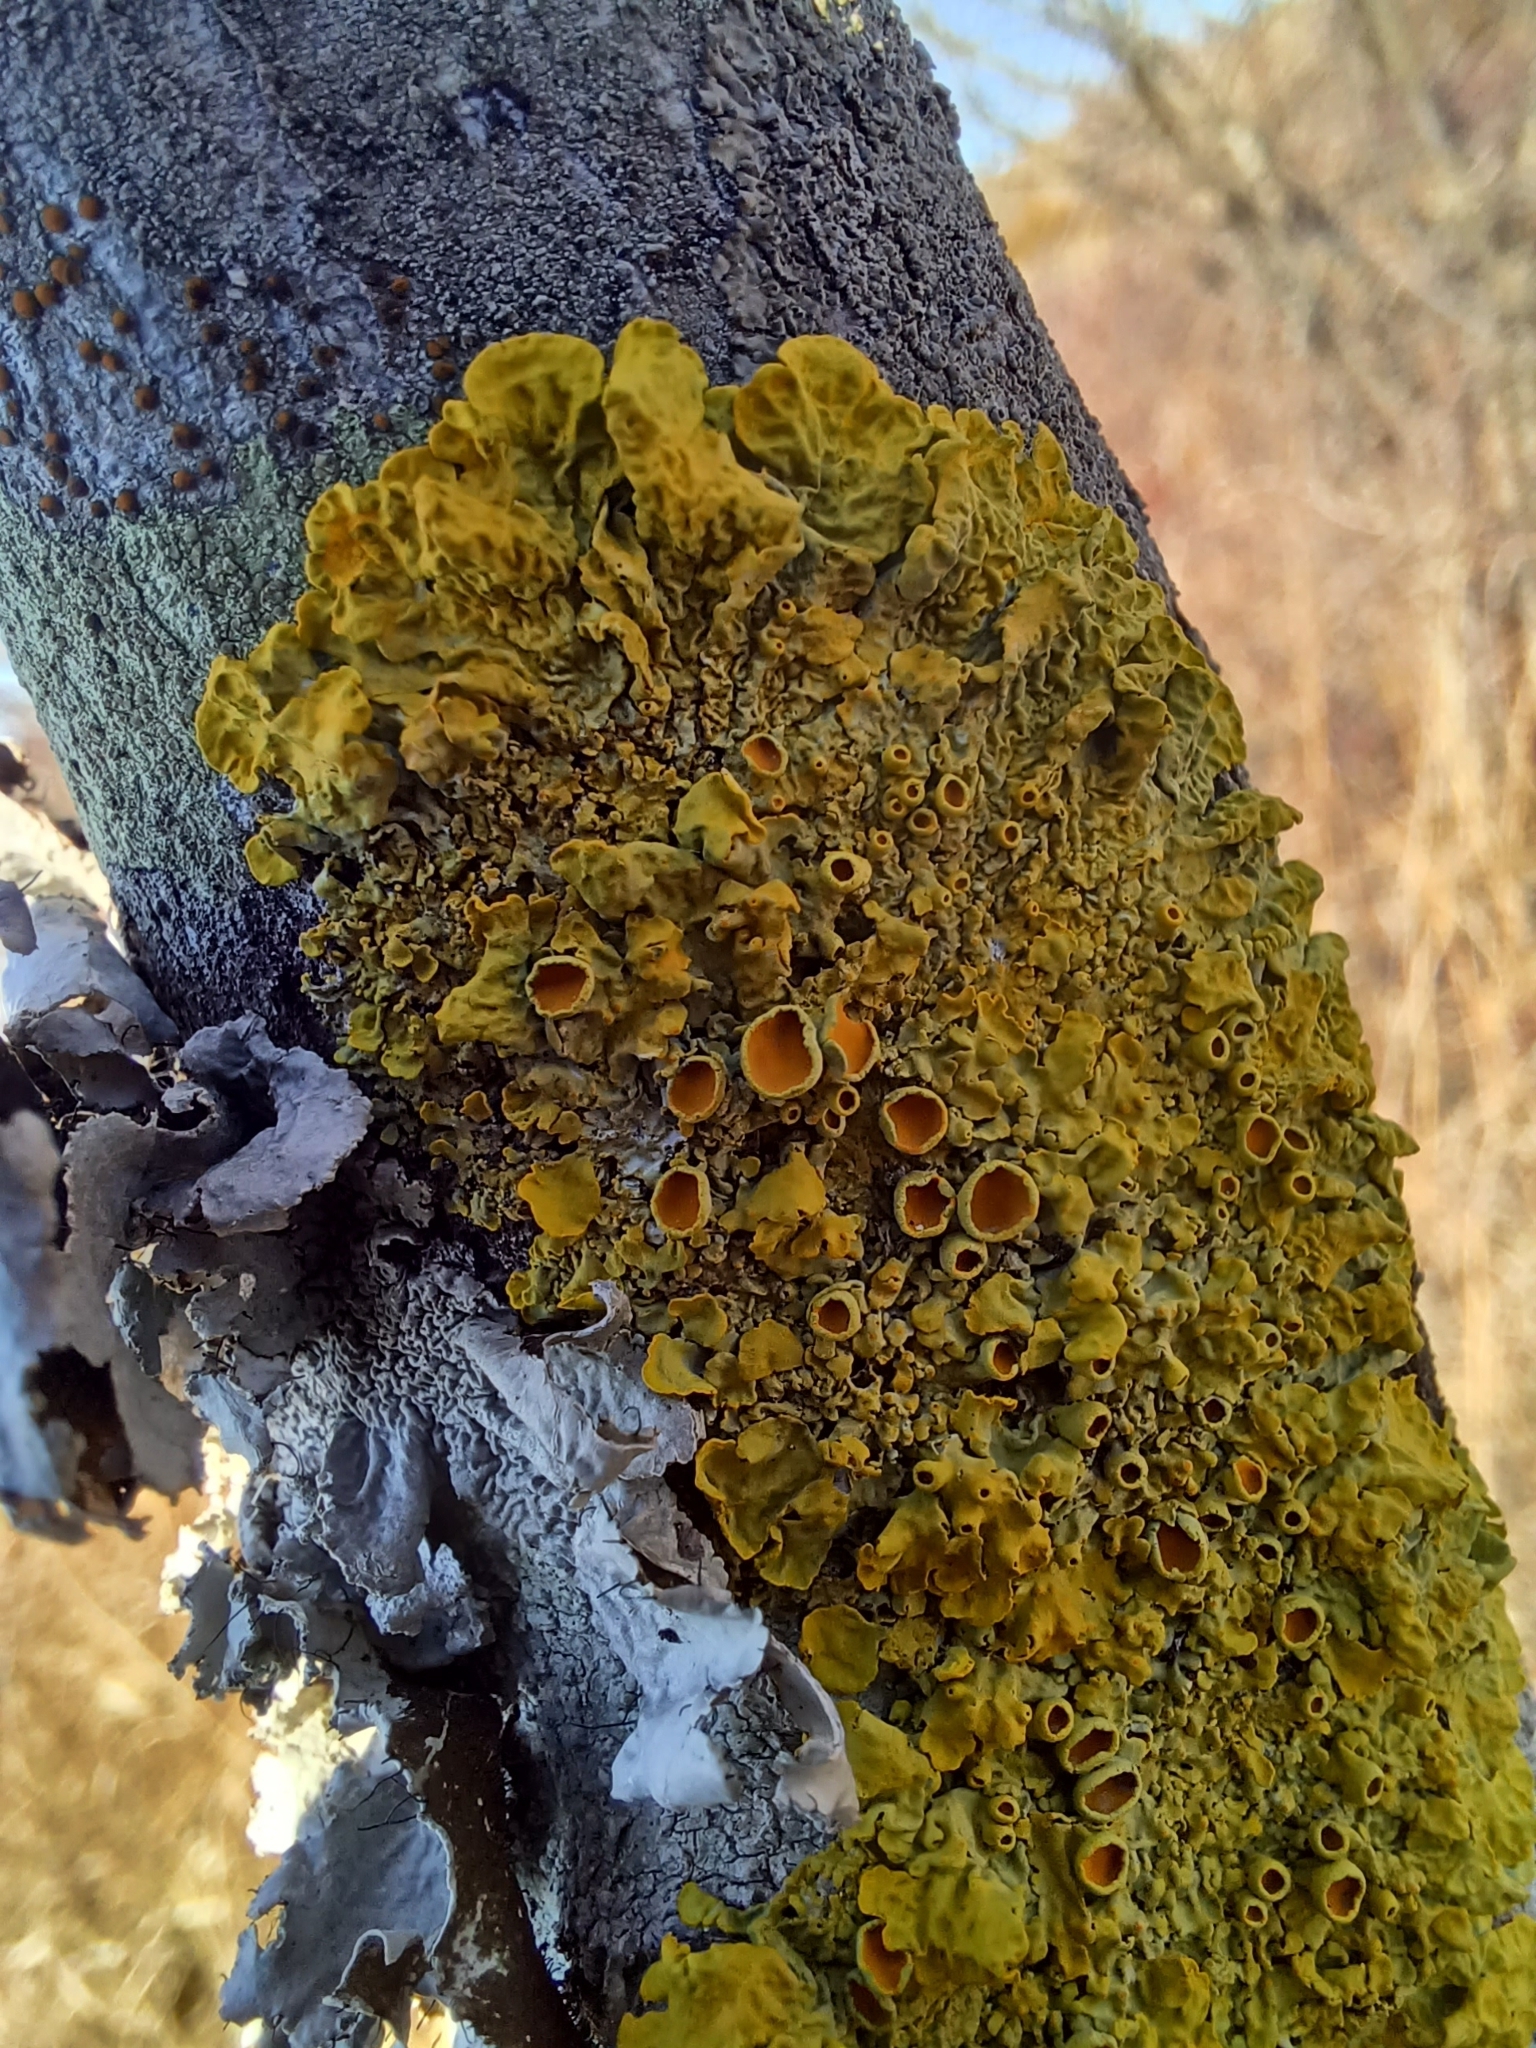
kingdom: Fungi
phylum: Ascomycota
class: Lecanoromycetes
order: Teloschistales
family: Teloschistaceae
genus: Xanthoria
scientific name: Xanthoria parietina
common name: Common orange lichen
